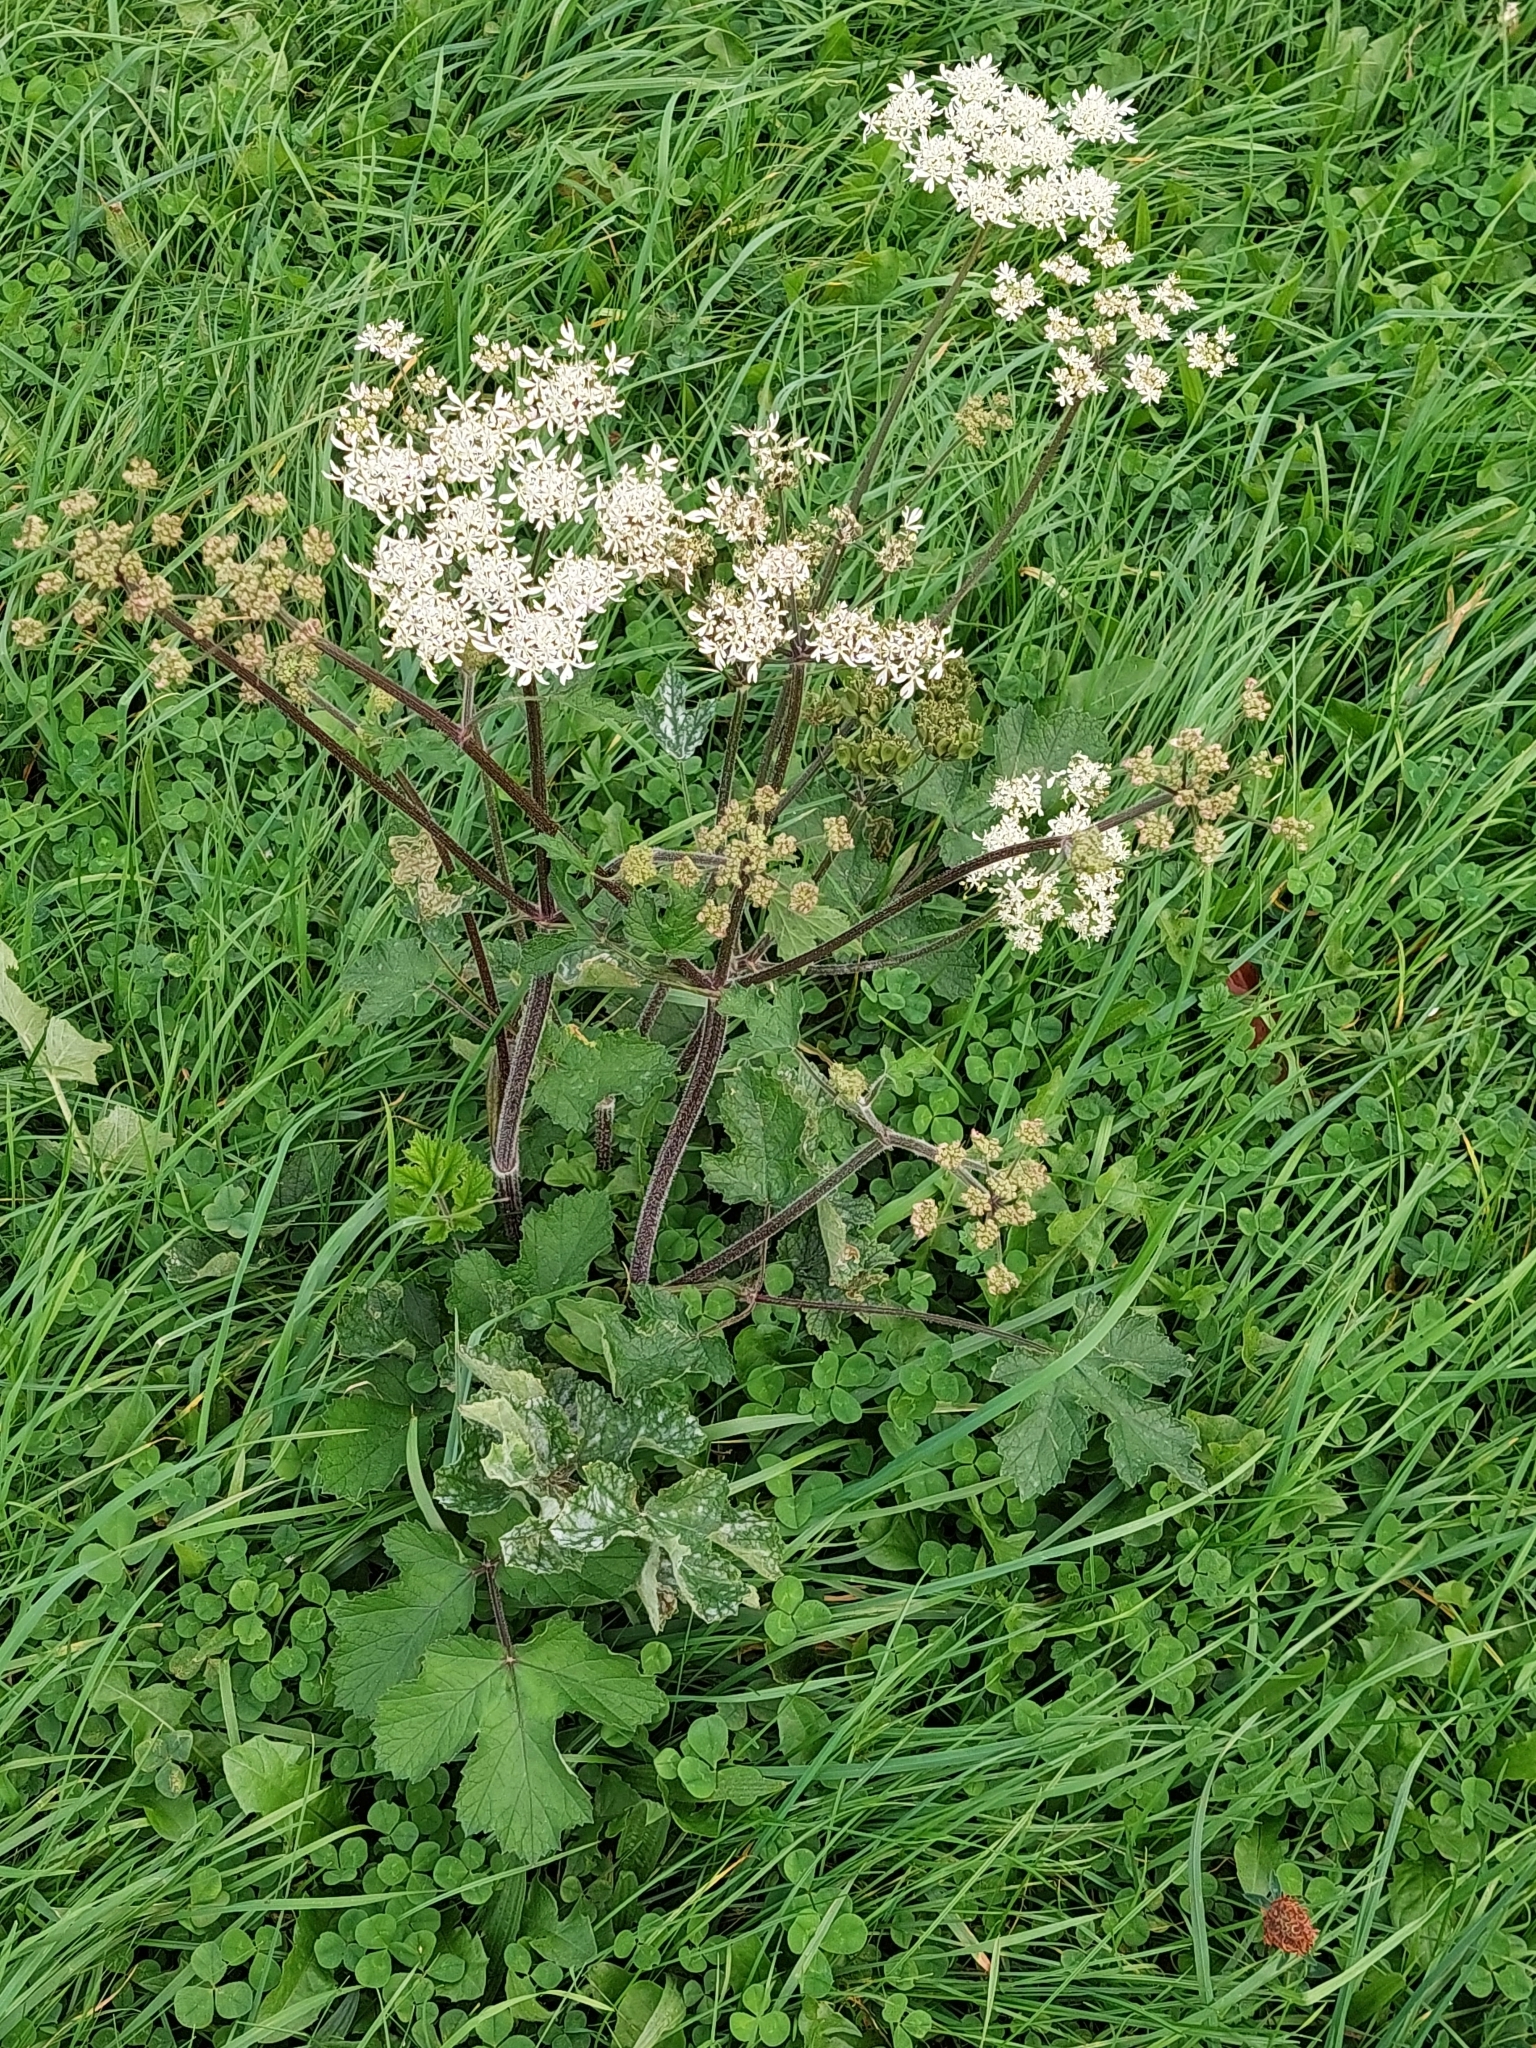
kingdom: Plantae
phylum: Tracheophyta
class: Magnoliopsida
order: Apiales
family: Apiaceae
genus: Heracleum
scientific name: Heracleum sphondylium
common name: Hogweed
